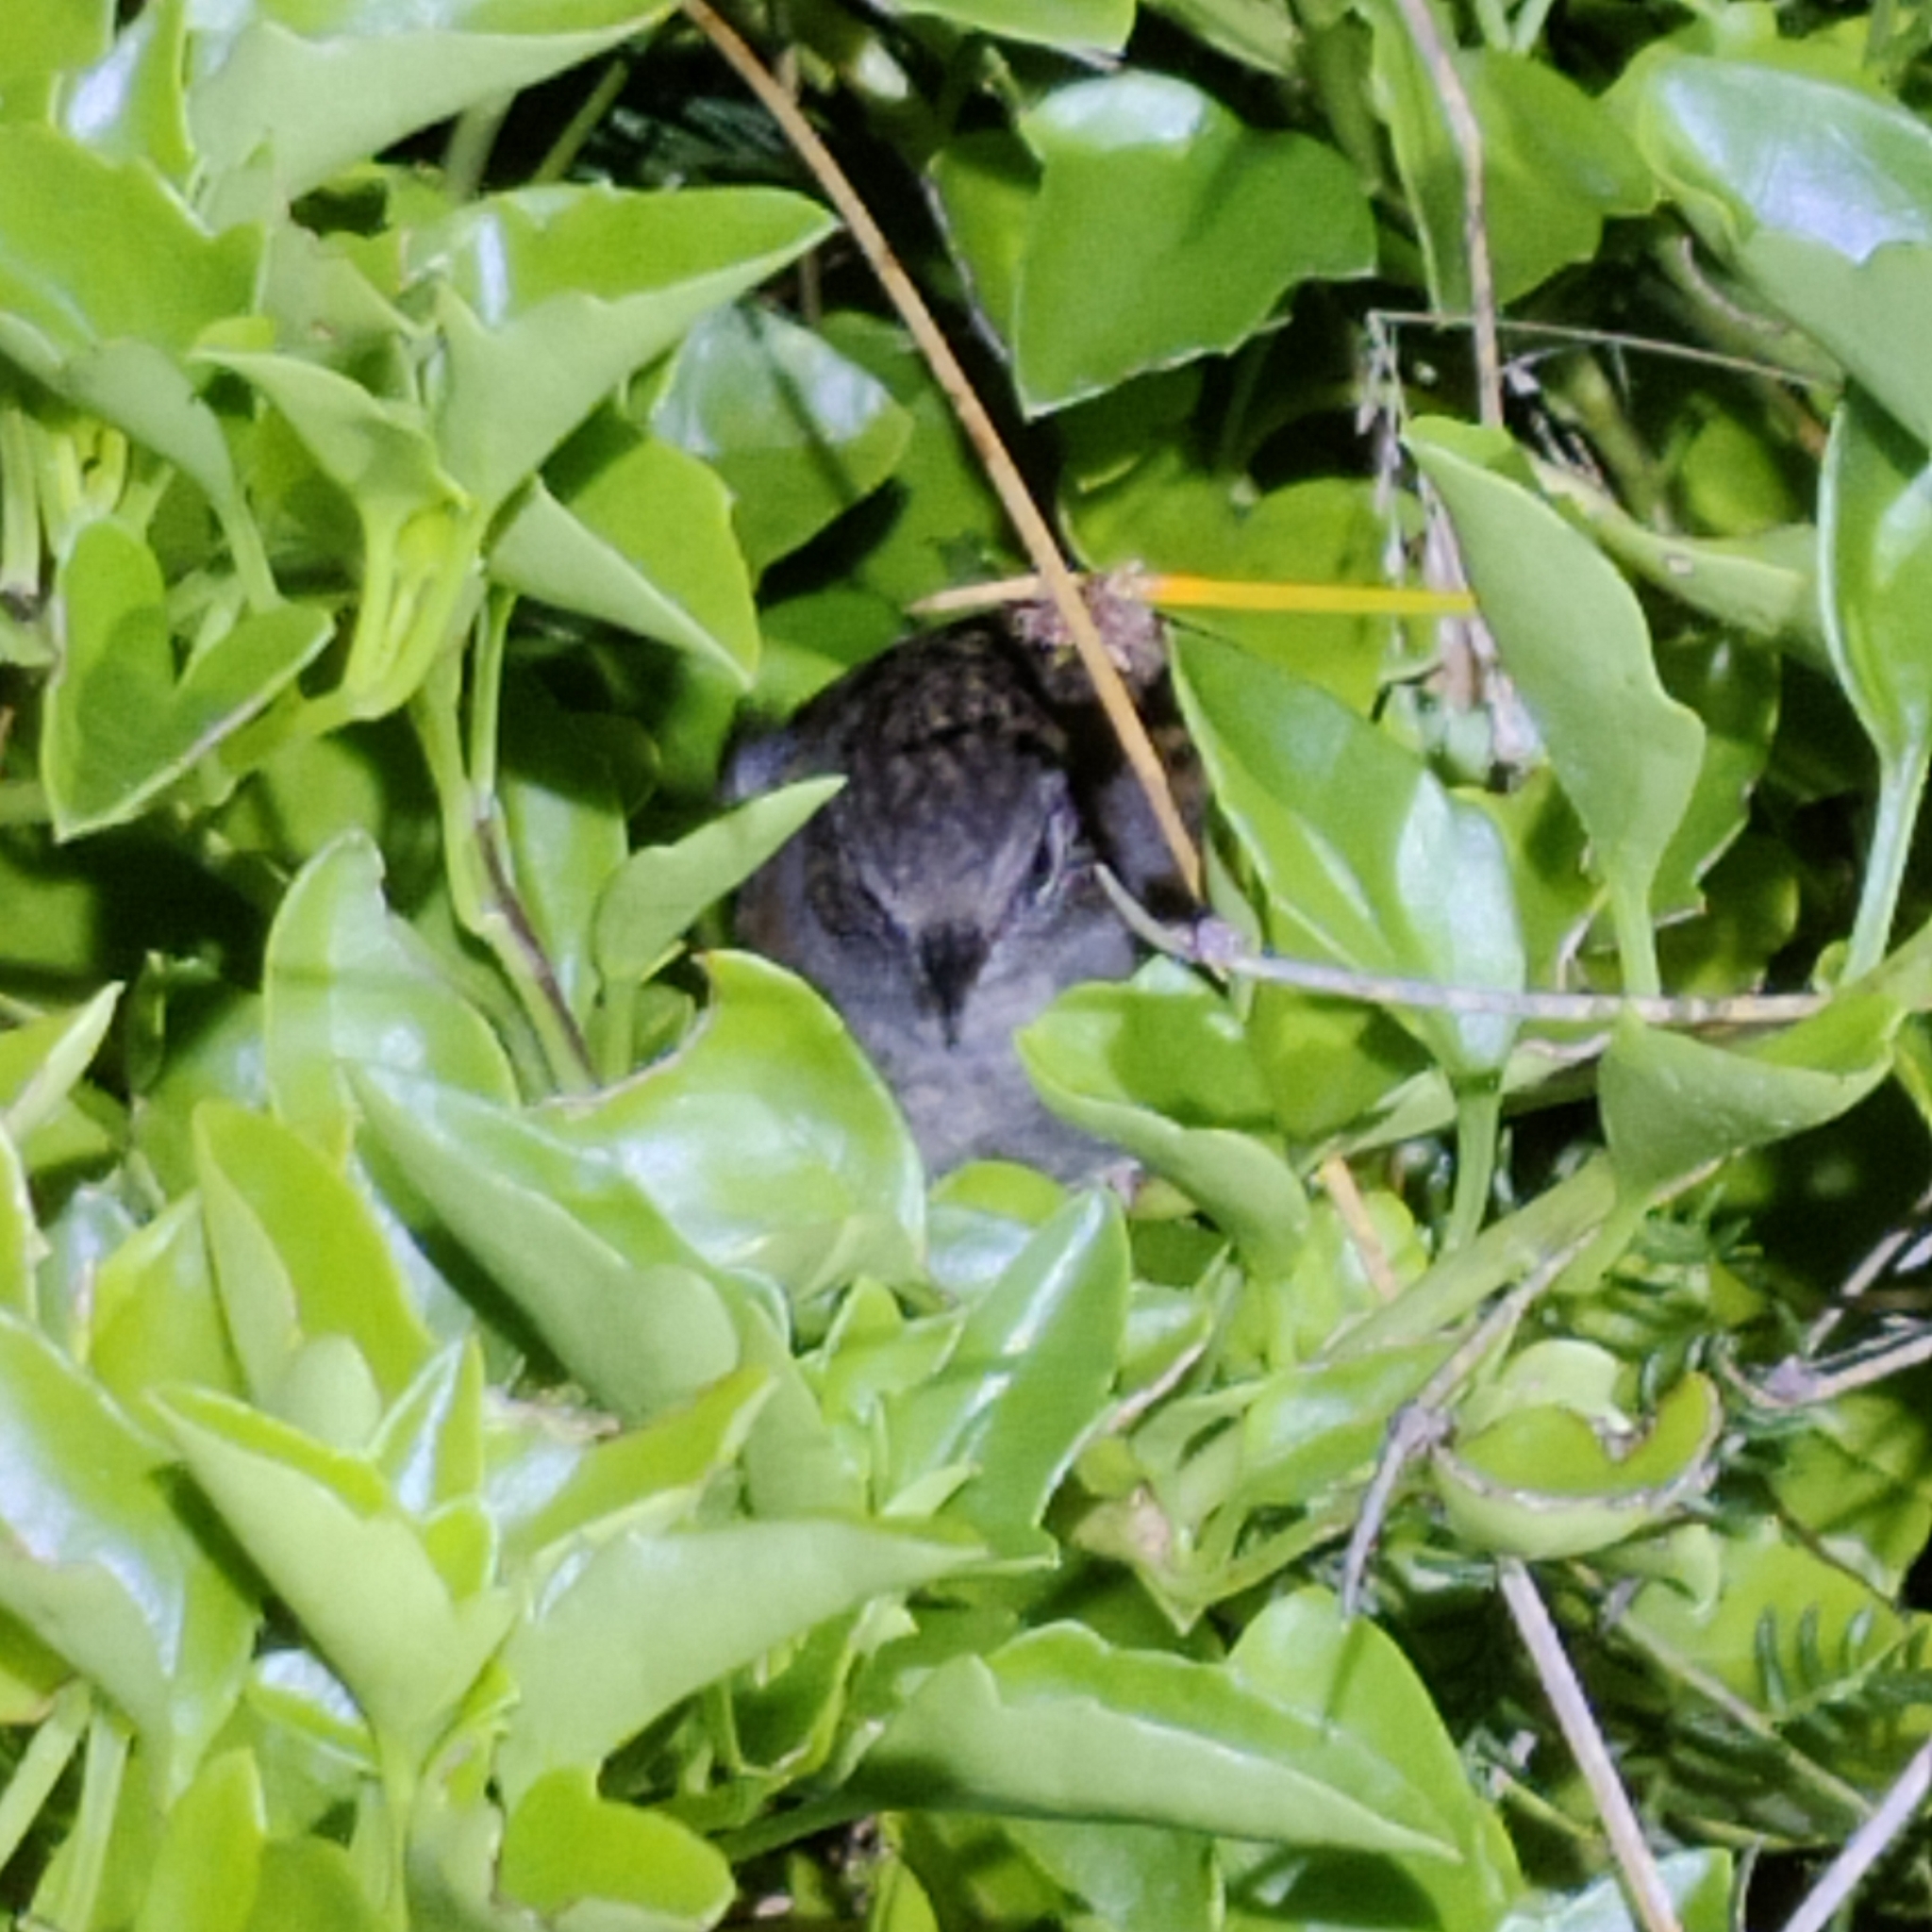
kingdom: Animalia
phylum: Chordata
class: Aves
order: Passeriformes
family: Prunellidae
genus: Prunella
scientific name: Prunella modularis
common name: Dunnock
